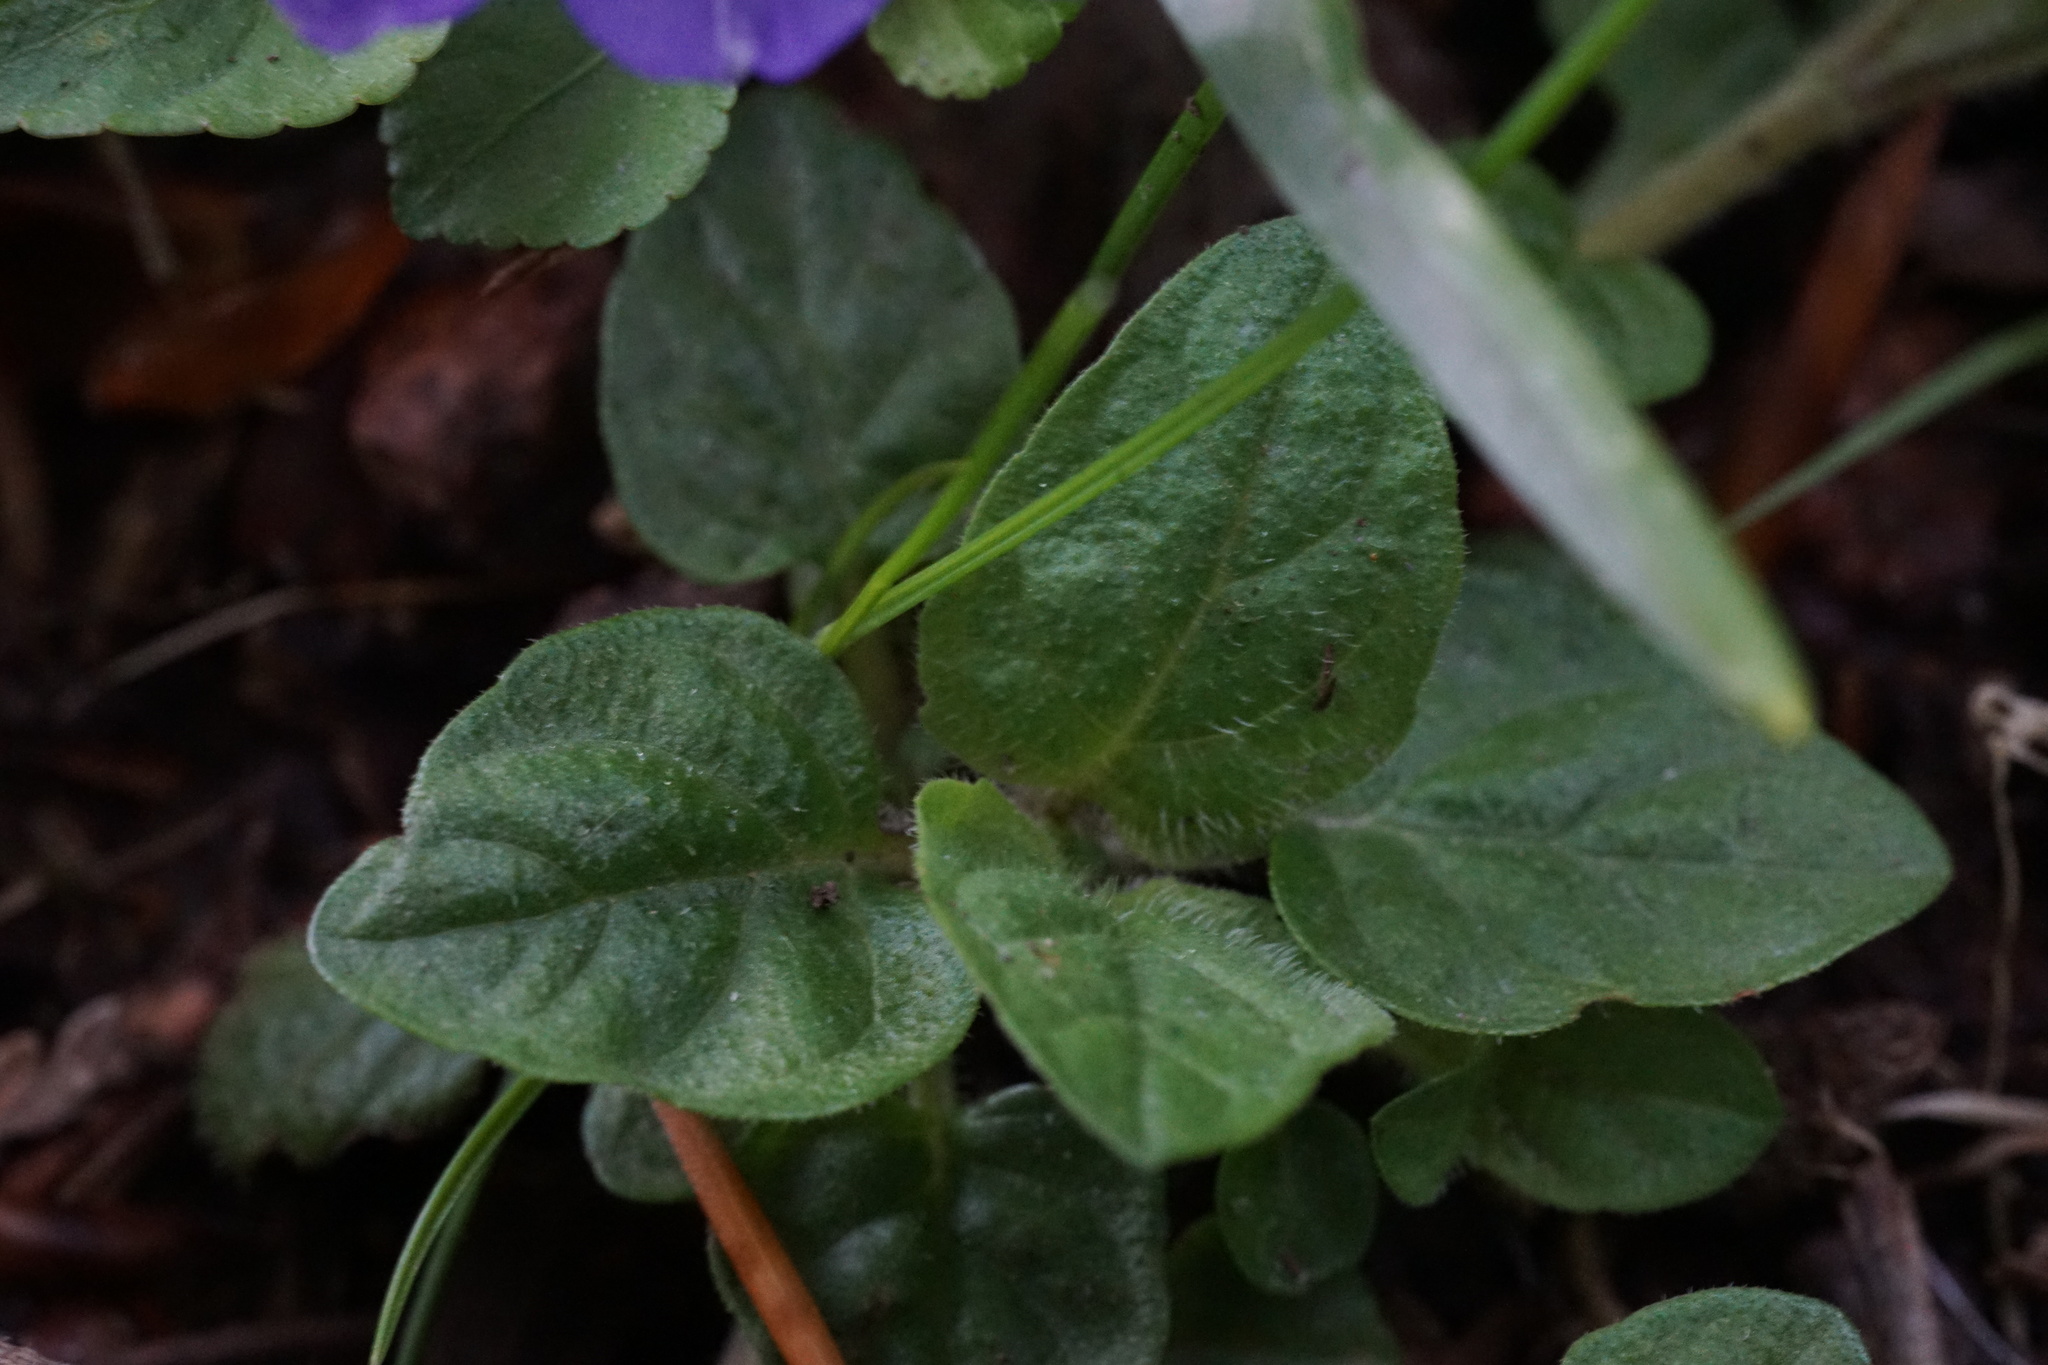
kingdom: Plantae
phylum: Tracheophyta
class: Magnoliopsida
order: Malpighiales
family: Violaceae
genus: Viola
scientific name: Viola riviniana
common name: Common dog-violet
